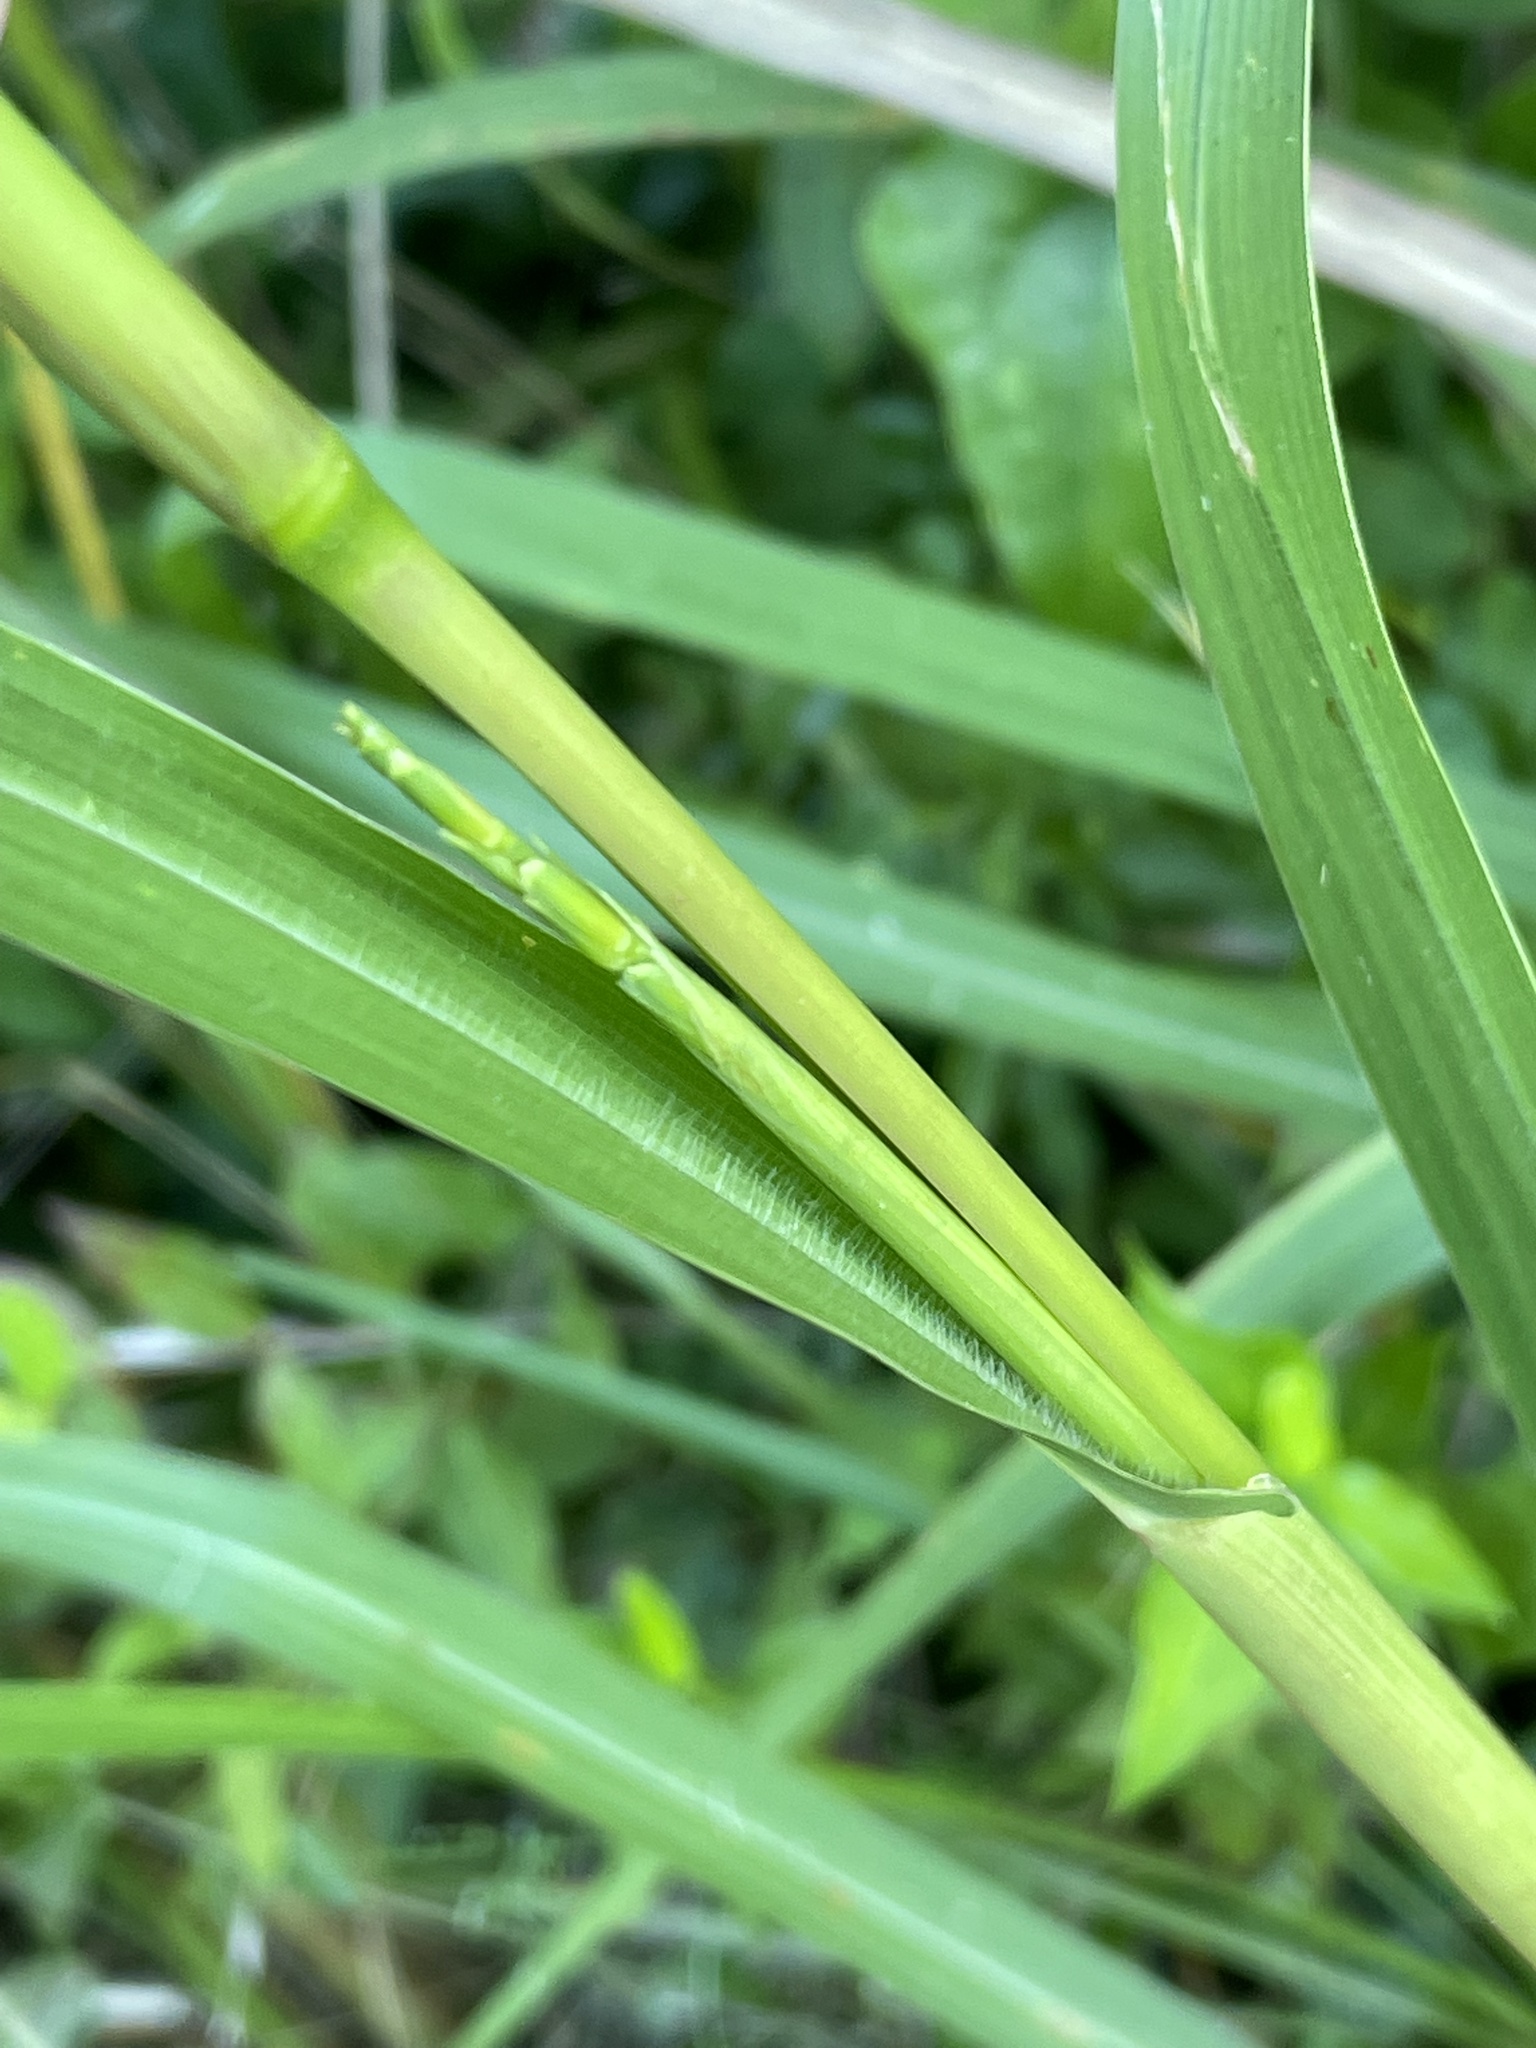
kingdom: Plantae
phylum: Tracheophyta
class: Liliopsida
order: Poales
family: Poaceae
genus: Tripsacum
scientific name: Tripsacum dactyloides
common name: Buffalo-grass
